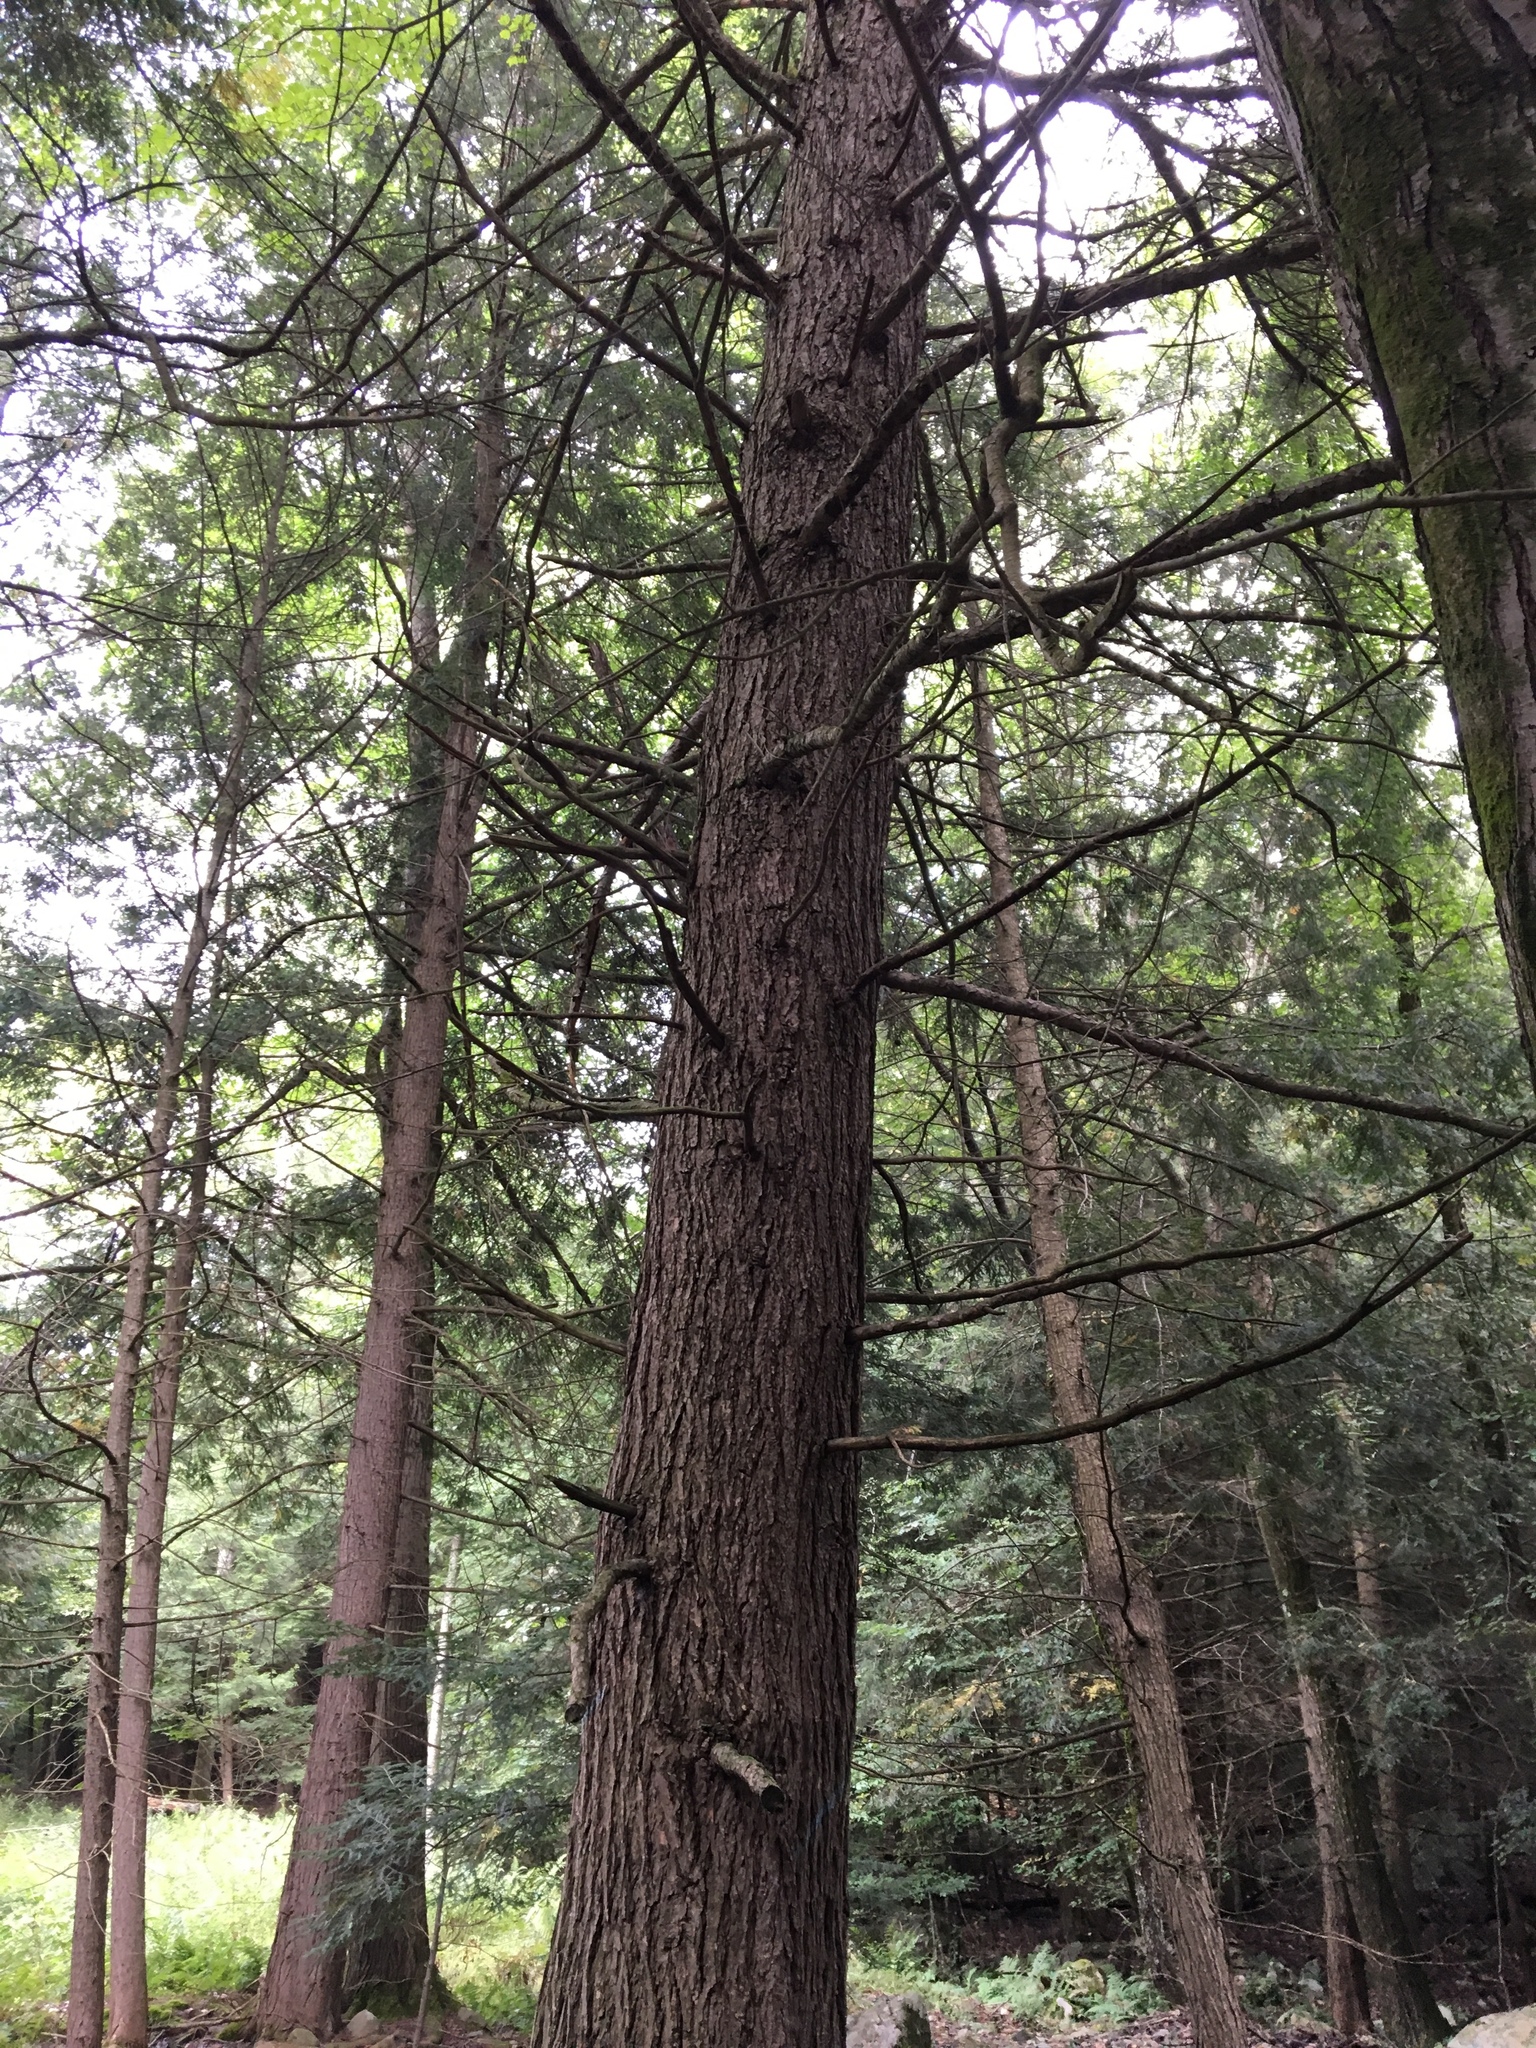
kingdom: Plantae
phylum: Tracheophyta
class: Pinopsida
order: Pinales
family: Pinaceae
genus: Tsuga
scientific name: Tsuga canadensis
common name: Eastern hemlock
